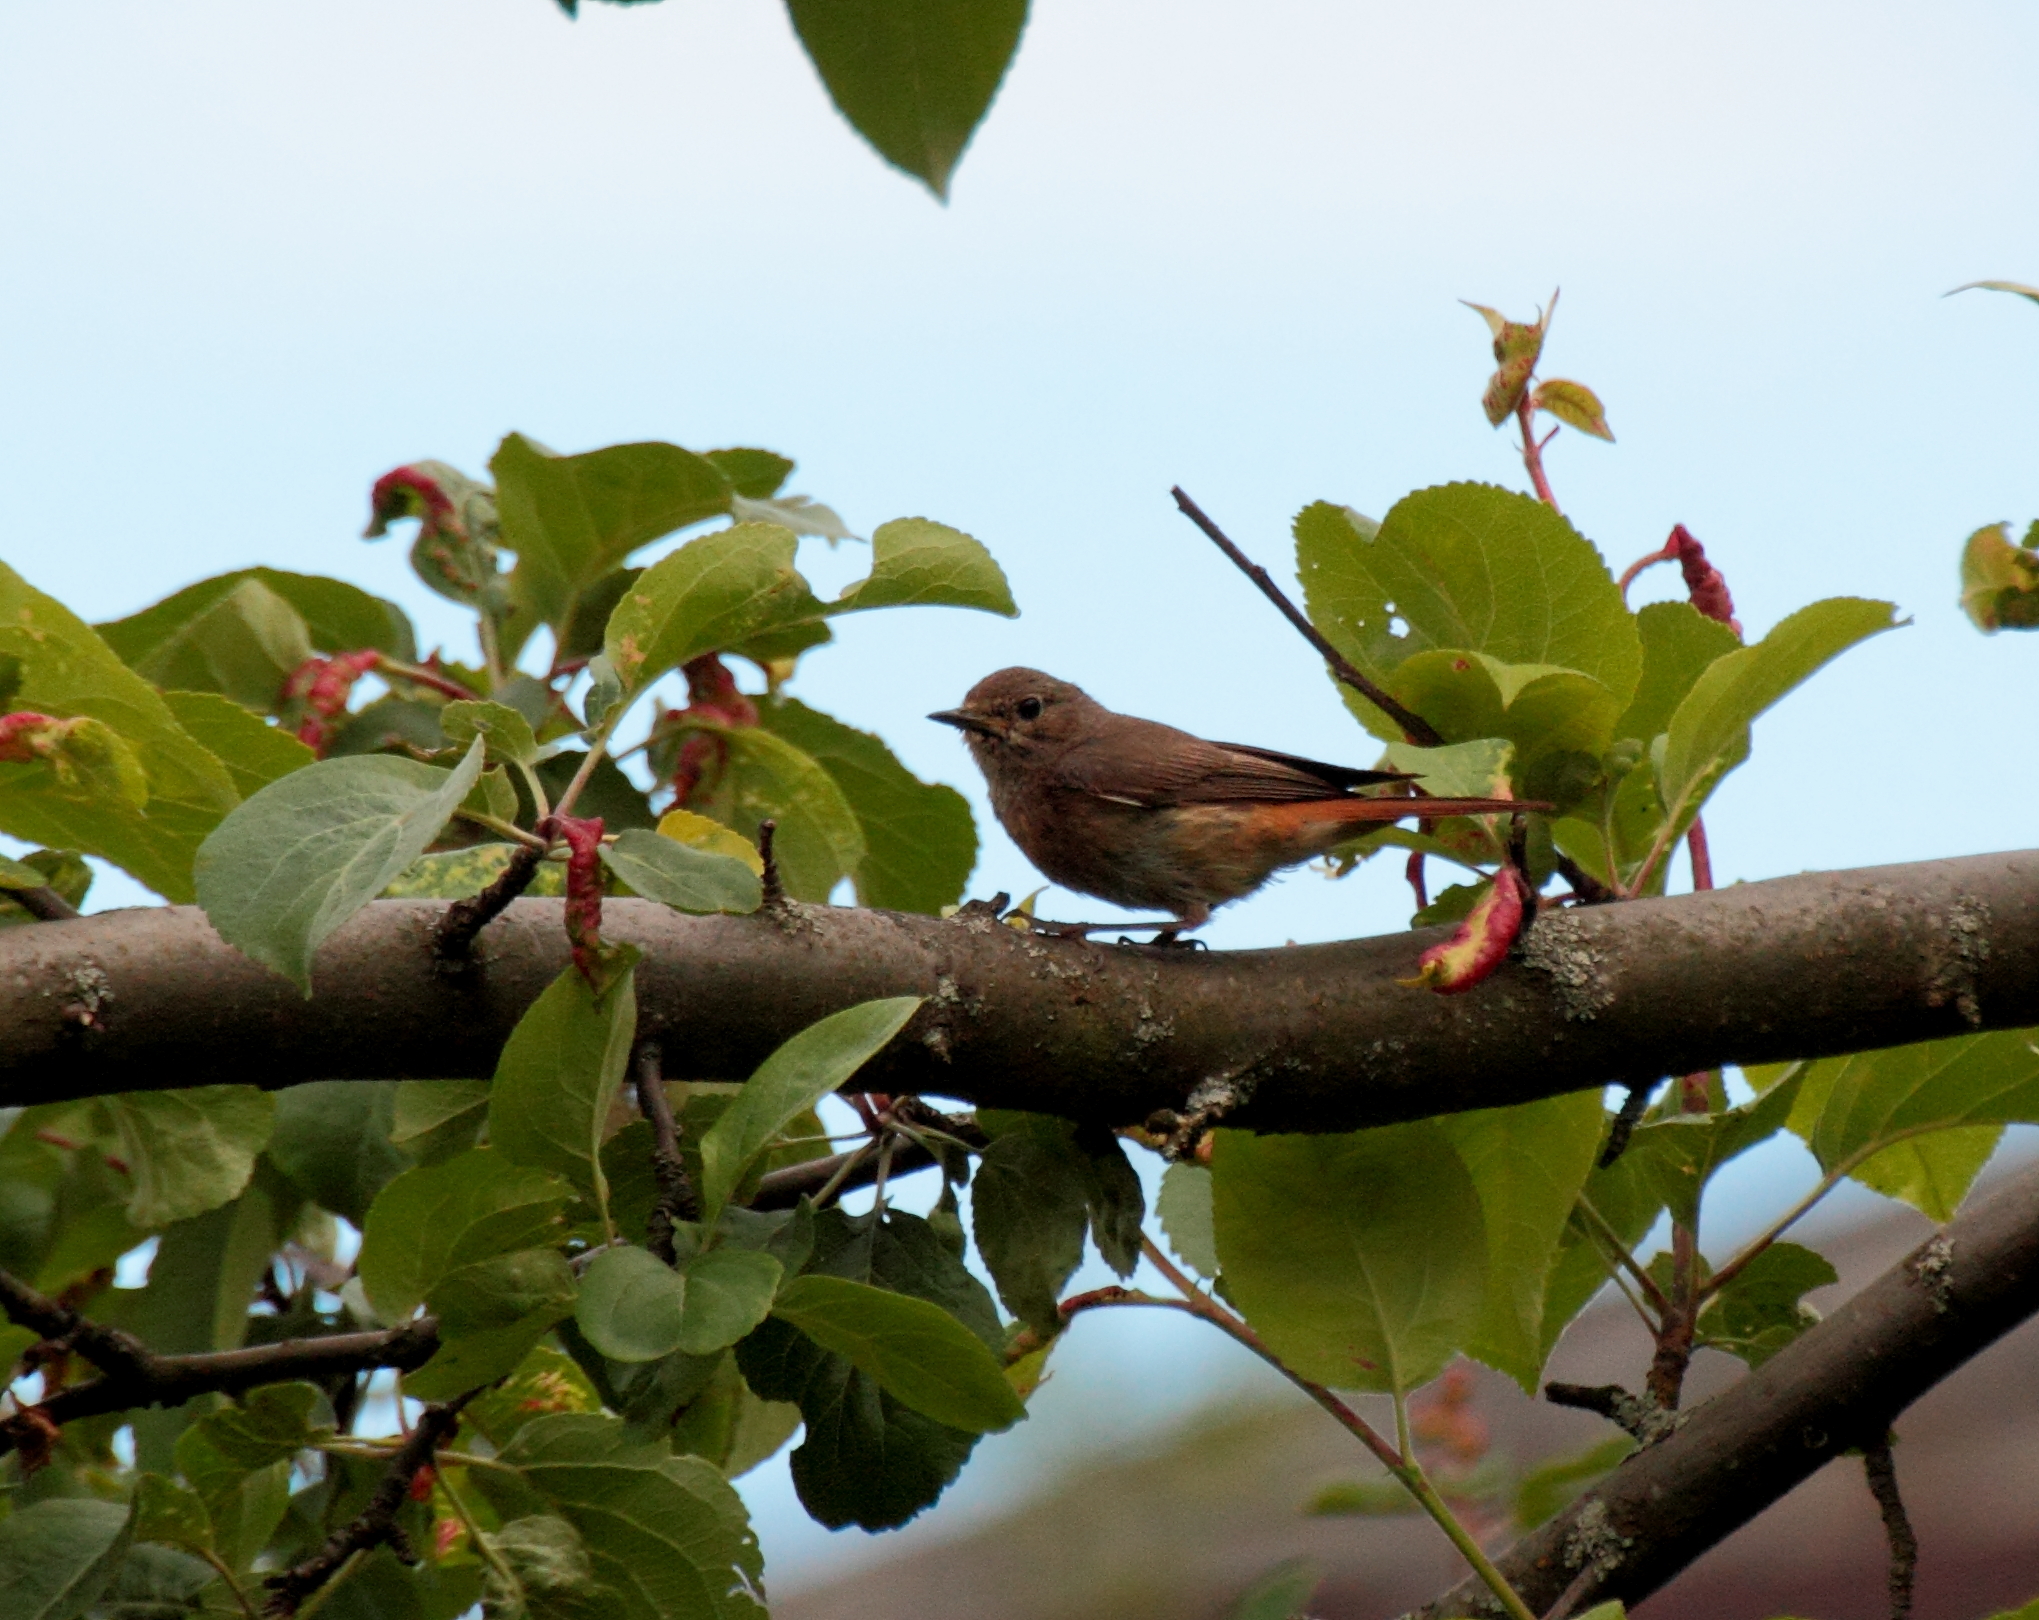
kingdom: Animalia
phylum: Chordata
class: Aves
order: Passeriformes
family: Muscicapidae
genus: Phoenicurus
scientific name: Phoenicurus phoenicurus
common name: Common redstart
